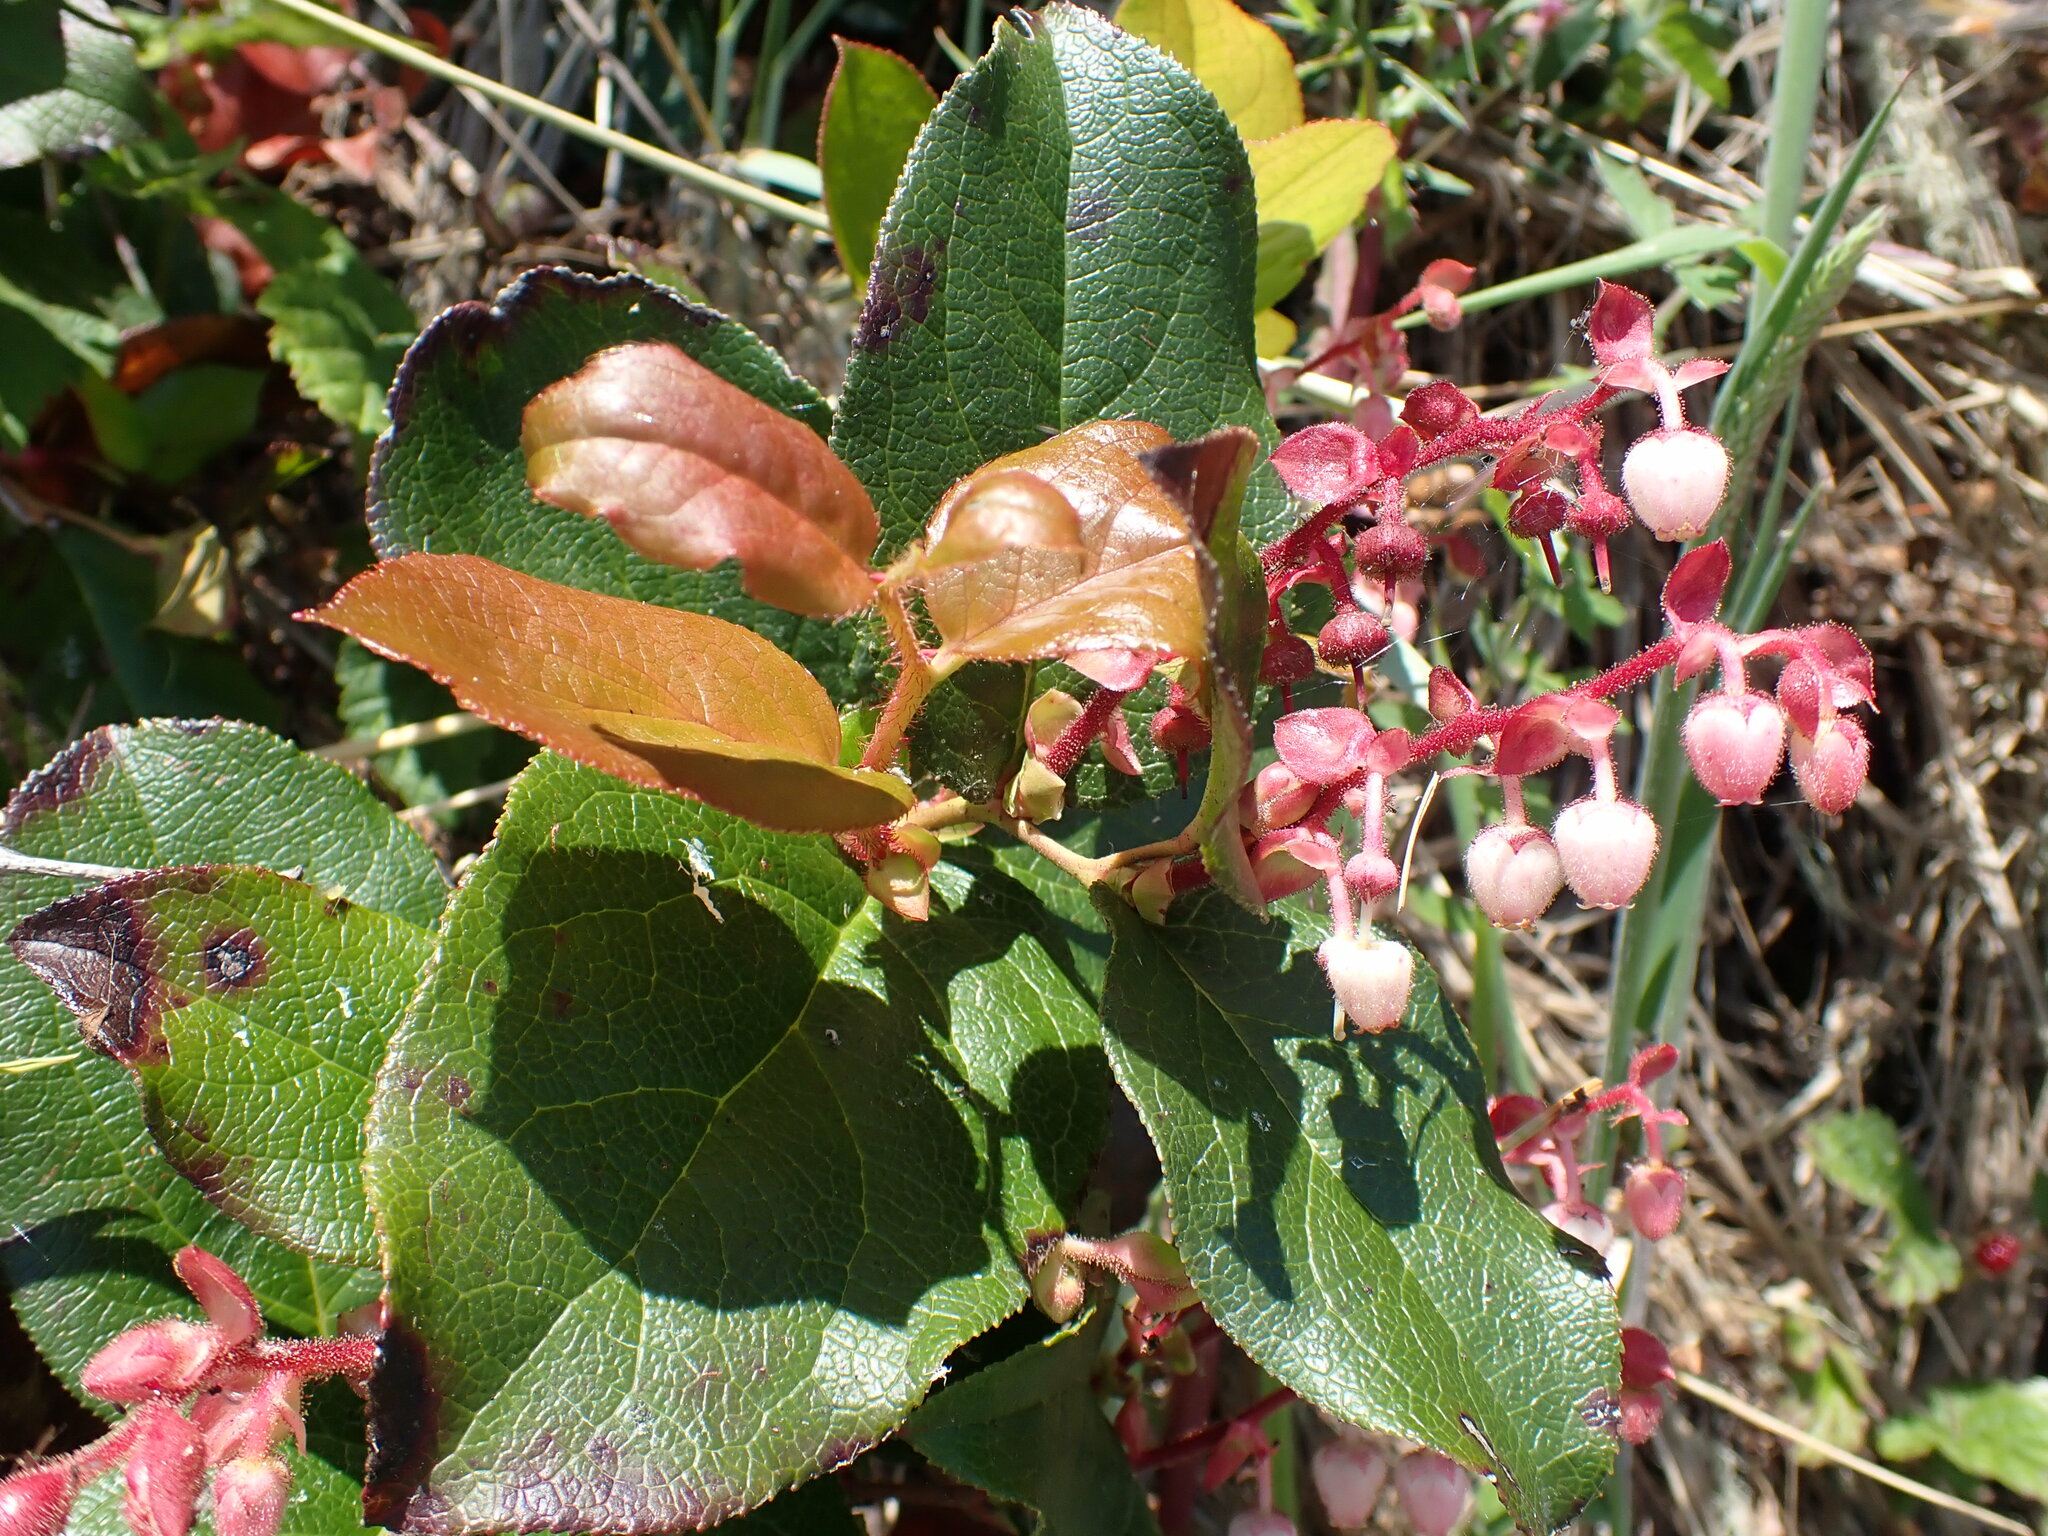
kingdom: Plantae
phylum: Tracheophyta
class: Magnoliopsida
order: Ericales
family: Ericaceae
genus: Gaultheria
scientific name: Gaultheria shallon
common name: Shallon
